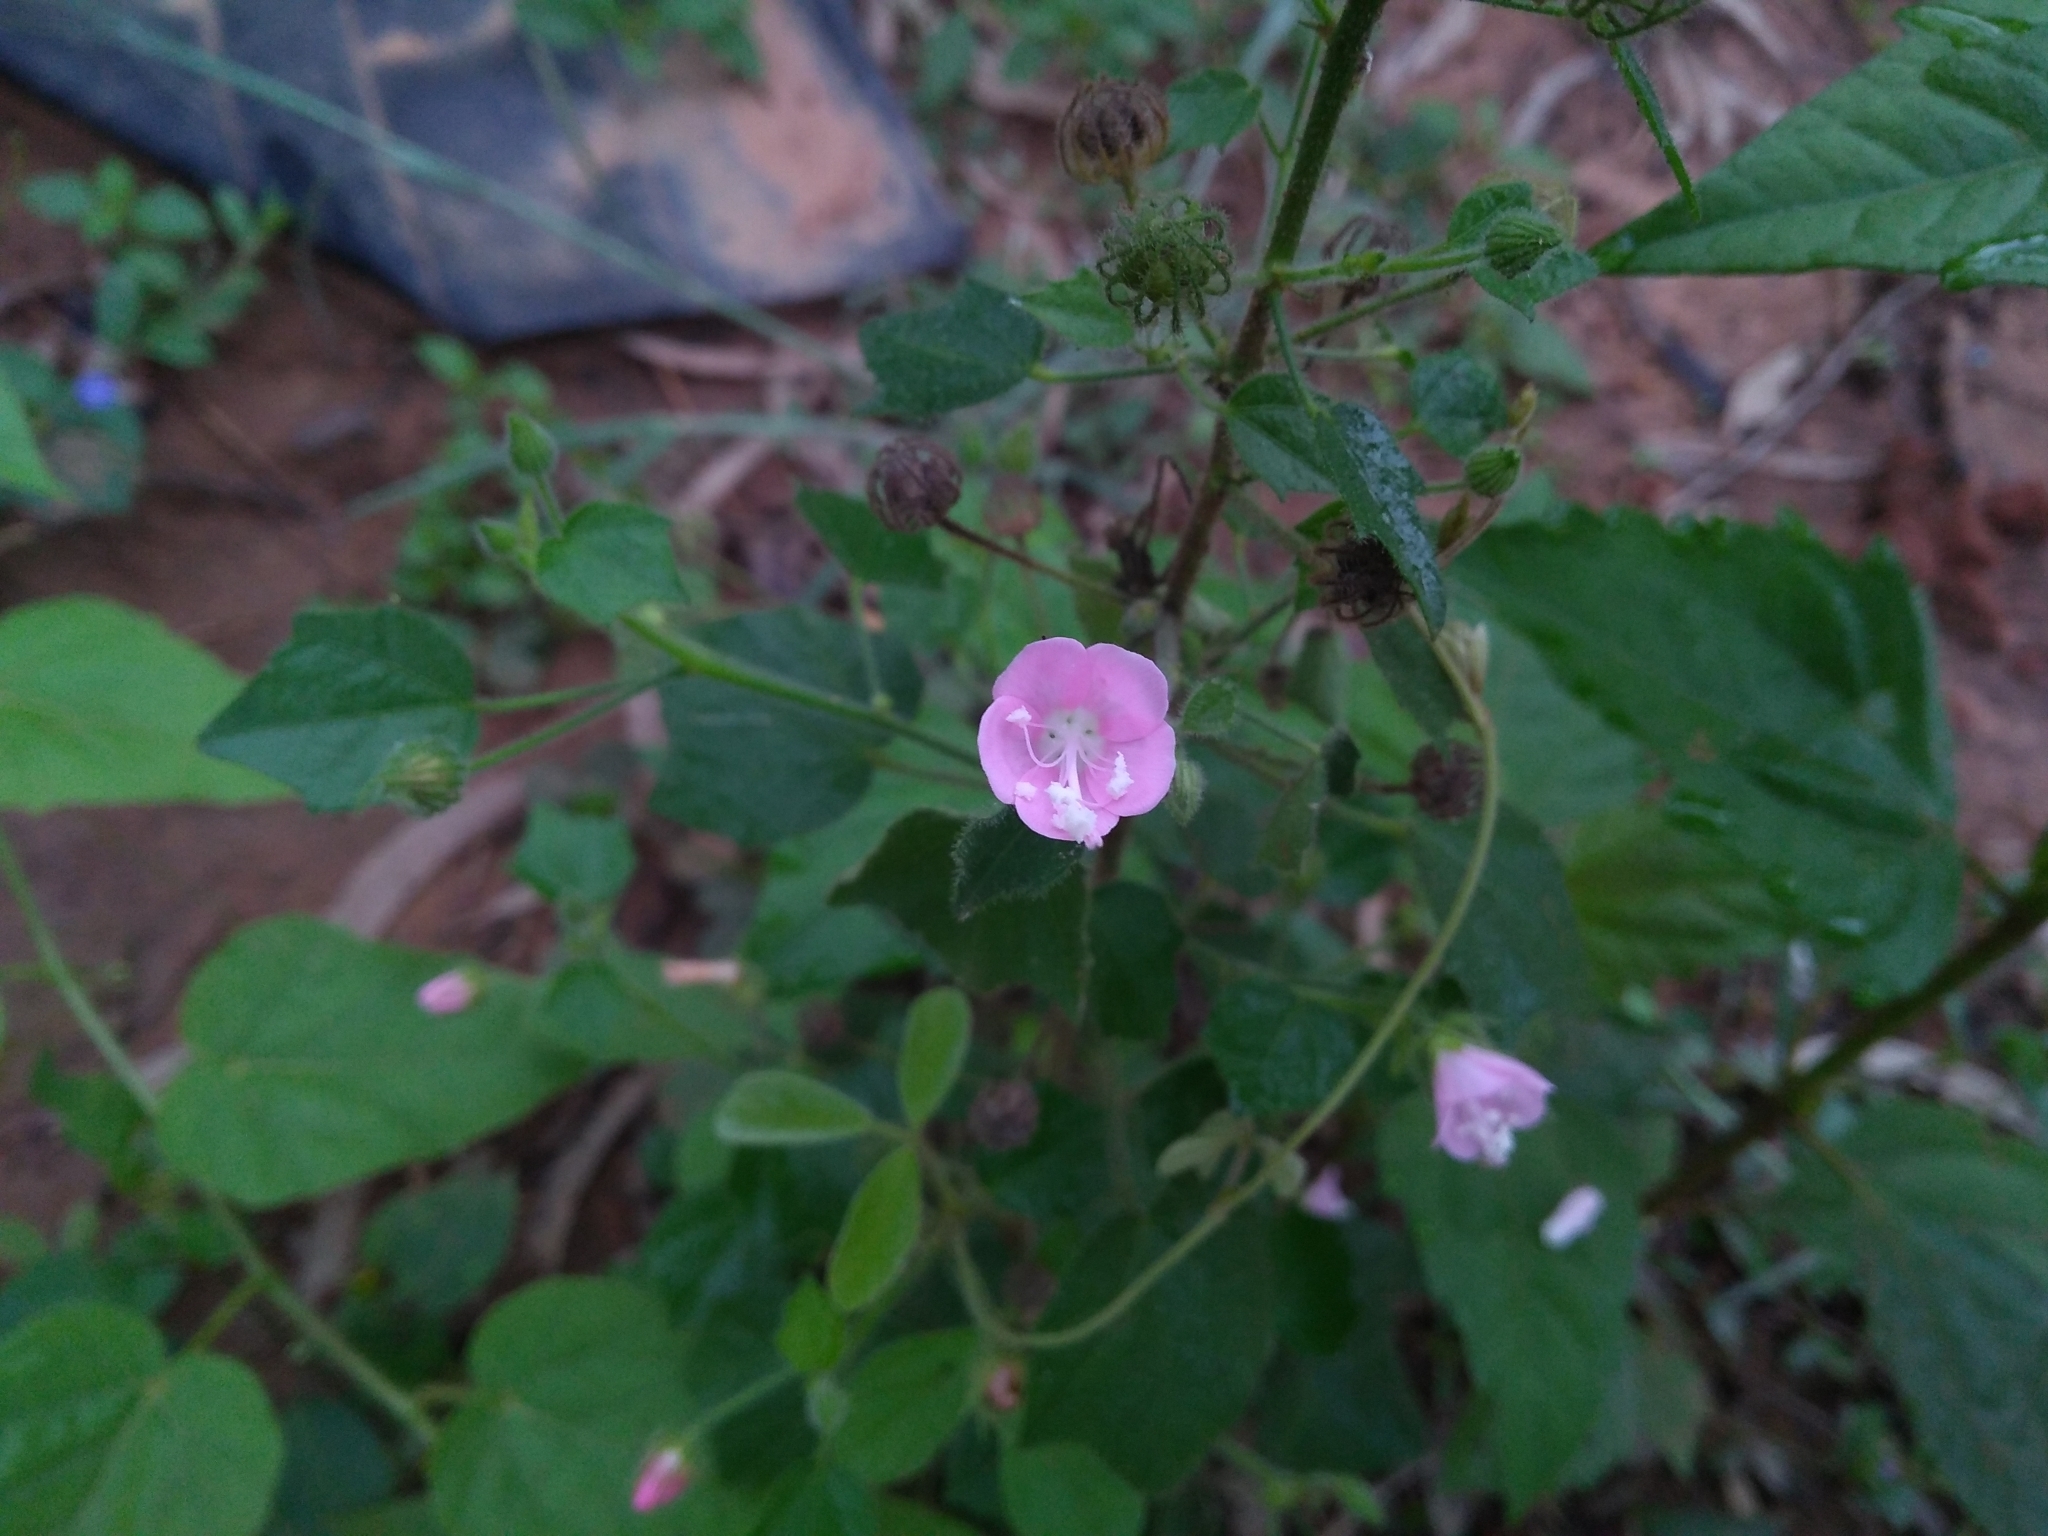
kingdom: Plantae
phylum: Tracheophyta
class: Magnoliopsida
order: Malvales
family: Malvaceae
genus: Pavonia
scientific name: Pavonia zeylanica
